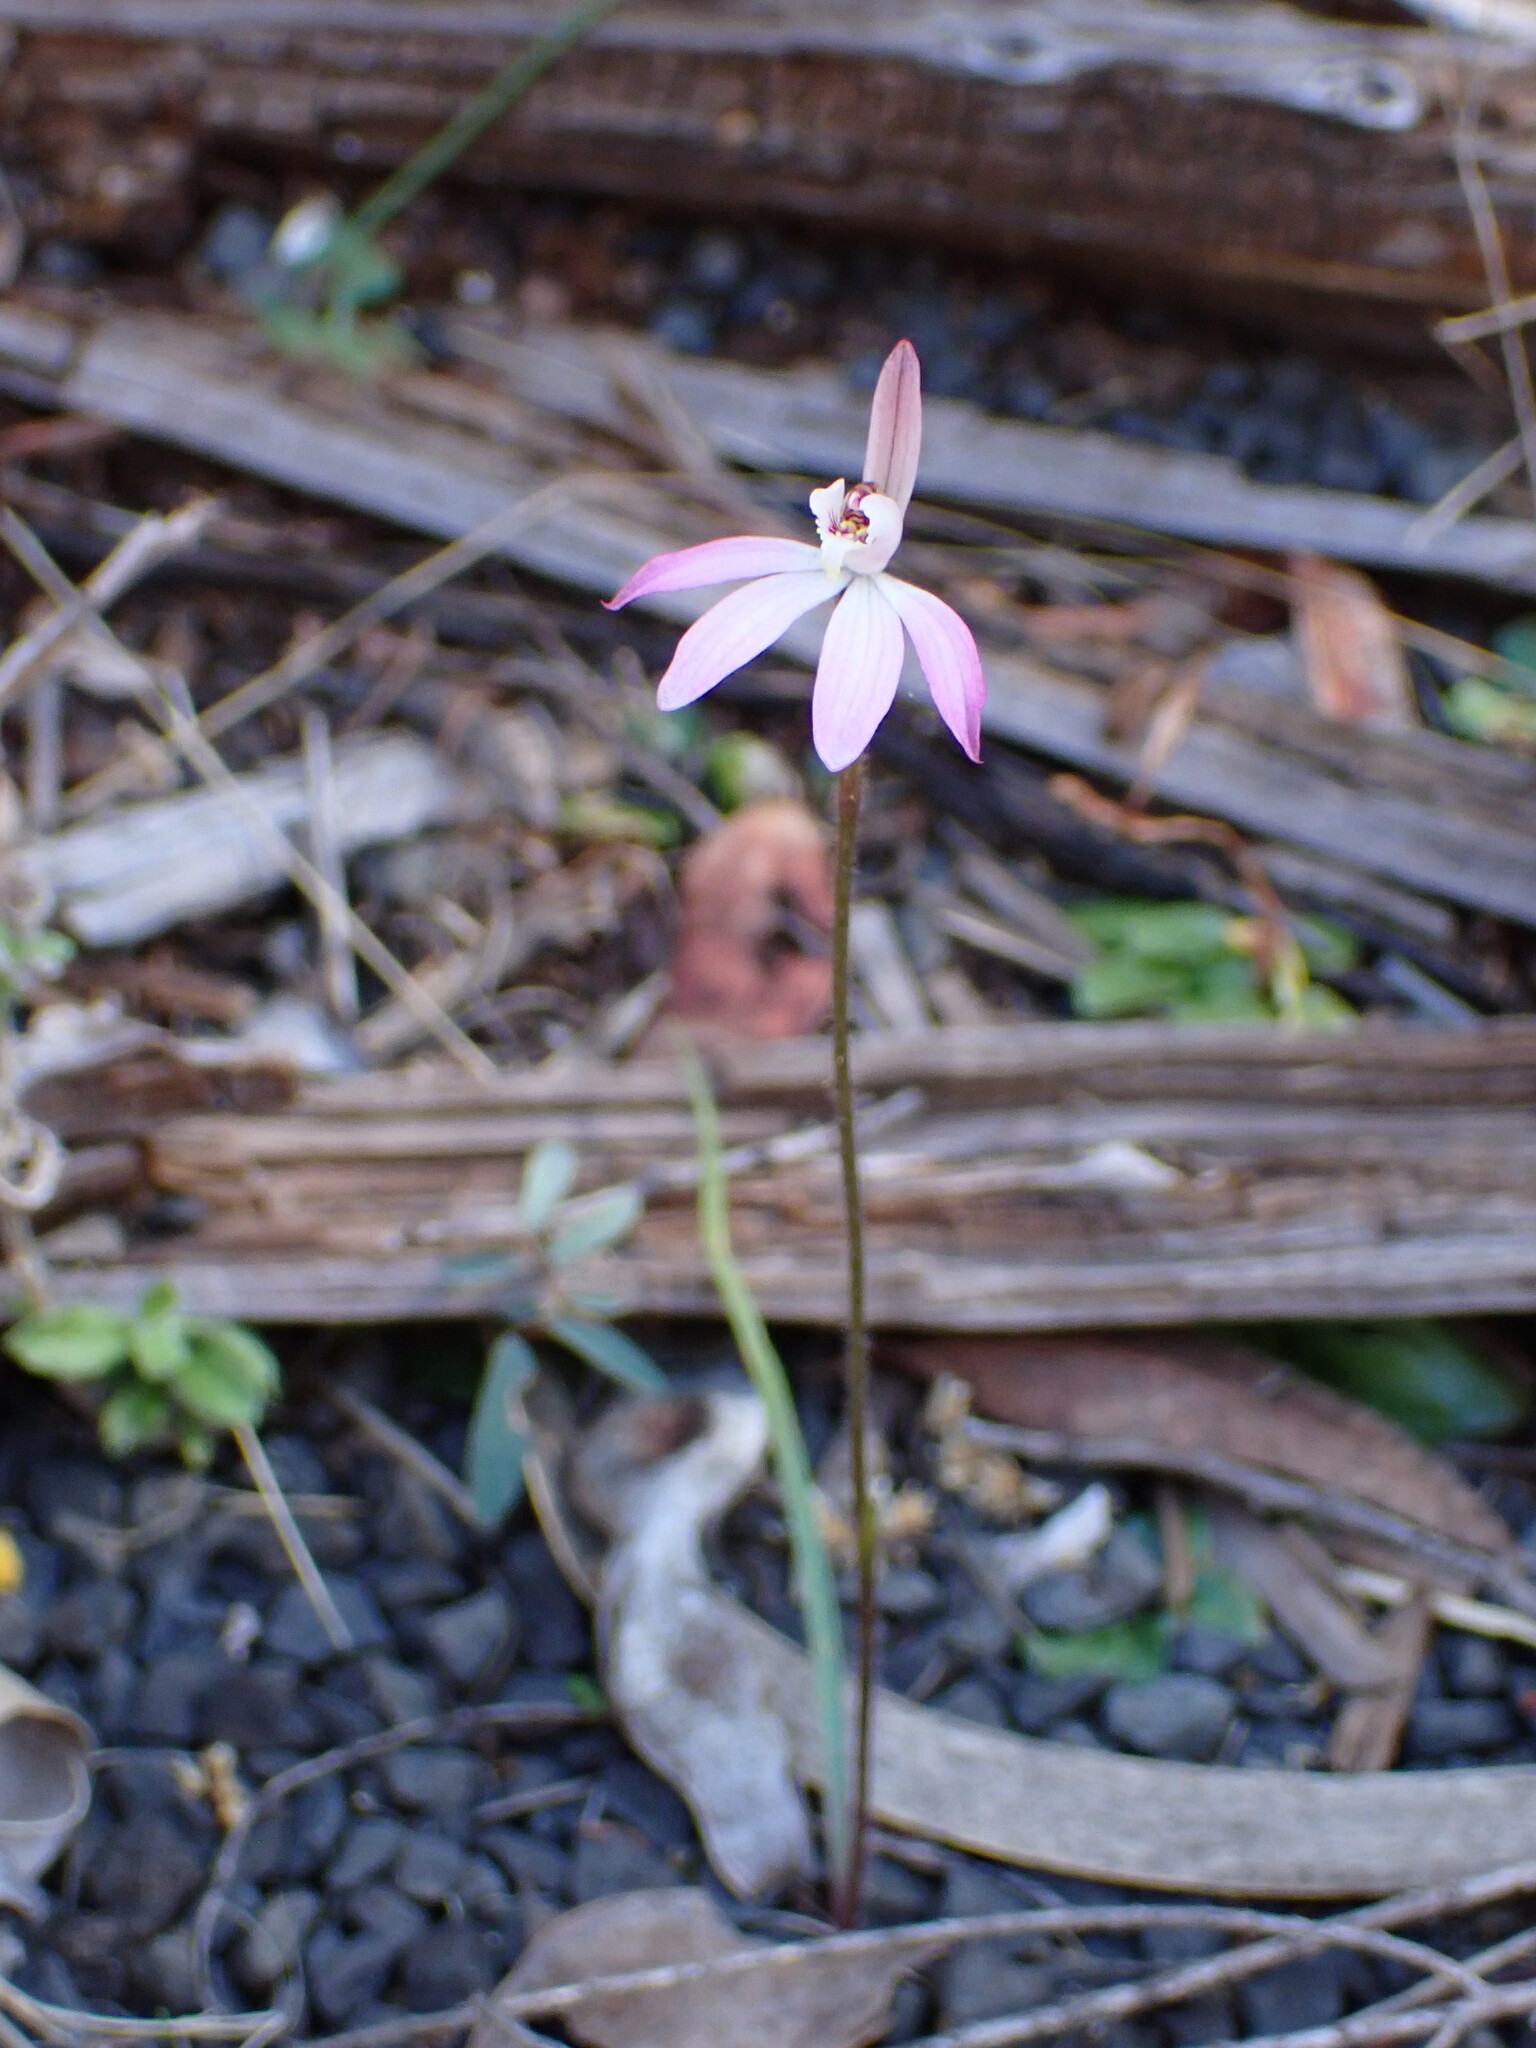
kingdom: Plantae
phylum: Tracheophyta
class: Liliopsida
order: Asparagales
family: Orchidaceae
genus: Caladenia
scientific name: Caladenia fuscata
